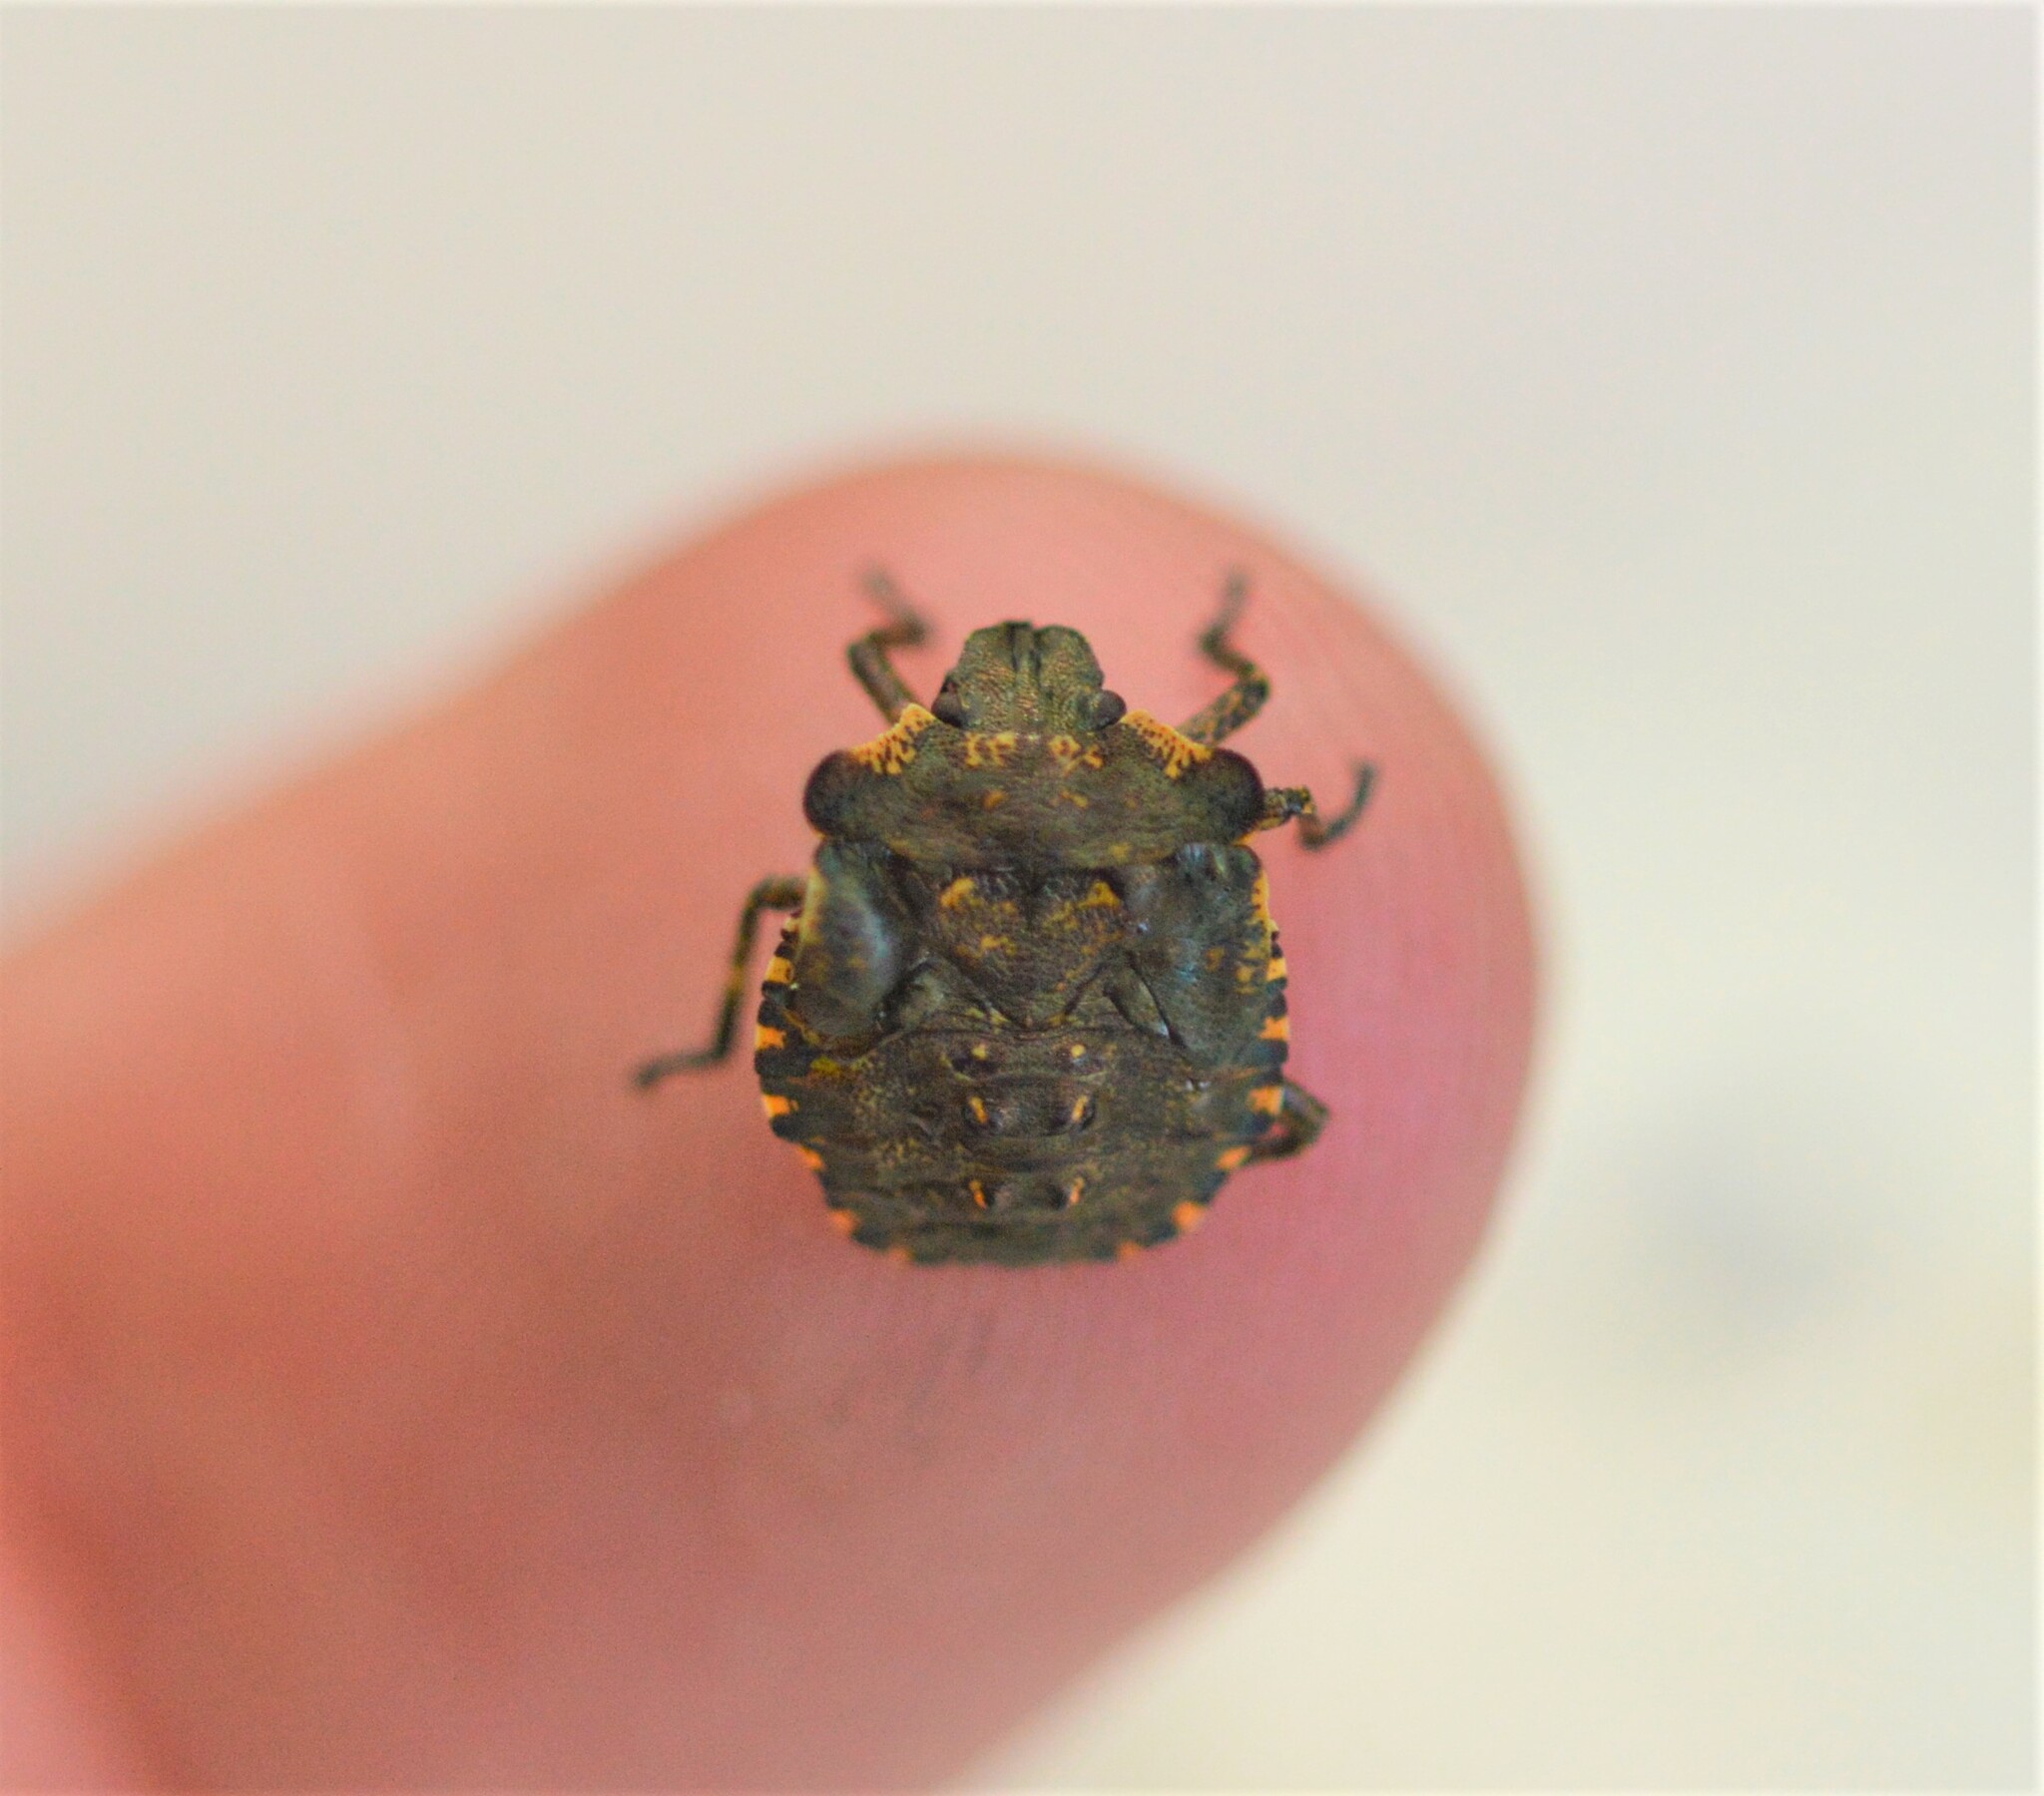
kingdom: Animalia
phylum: Arthropoda
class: Insecta
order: Hemiptera
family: Pentatomidae
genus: Pentatoma
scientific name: Pentatoma rufipes
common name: Forest bug
